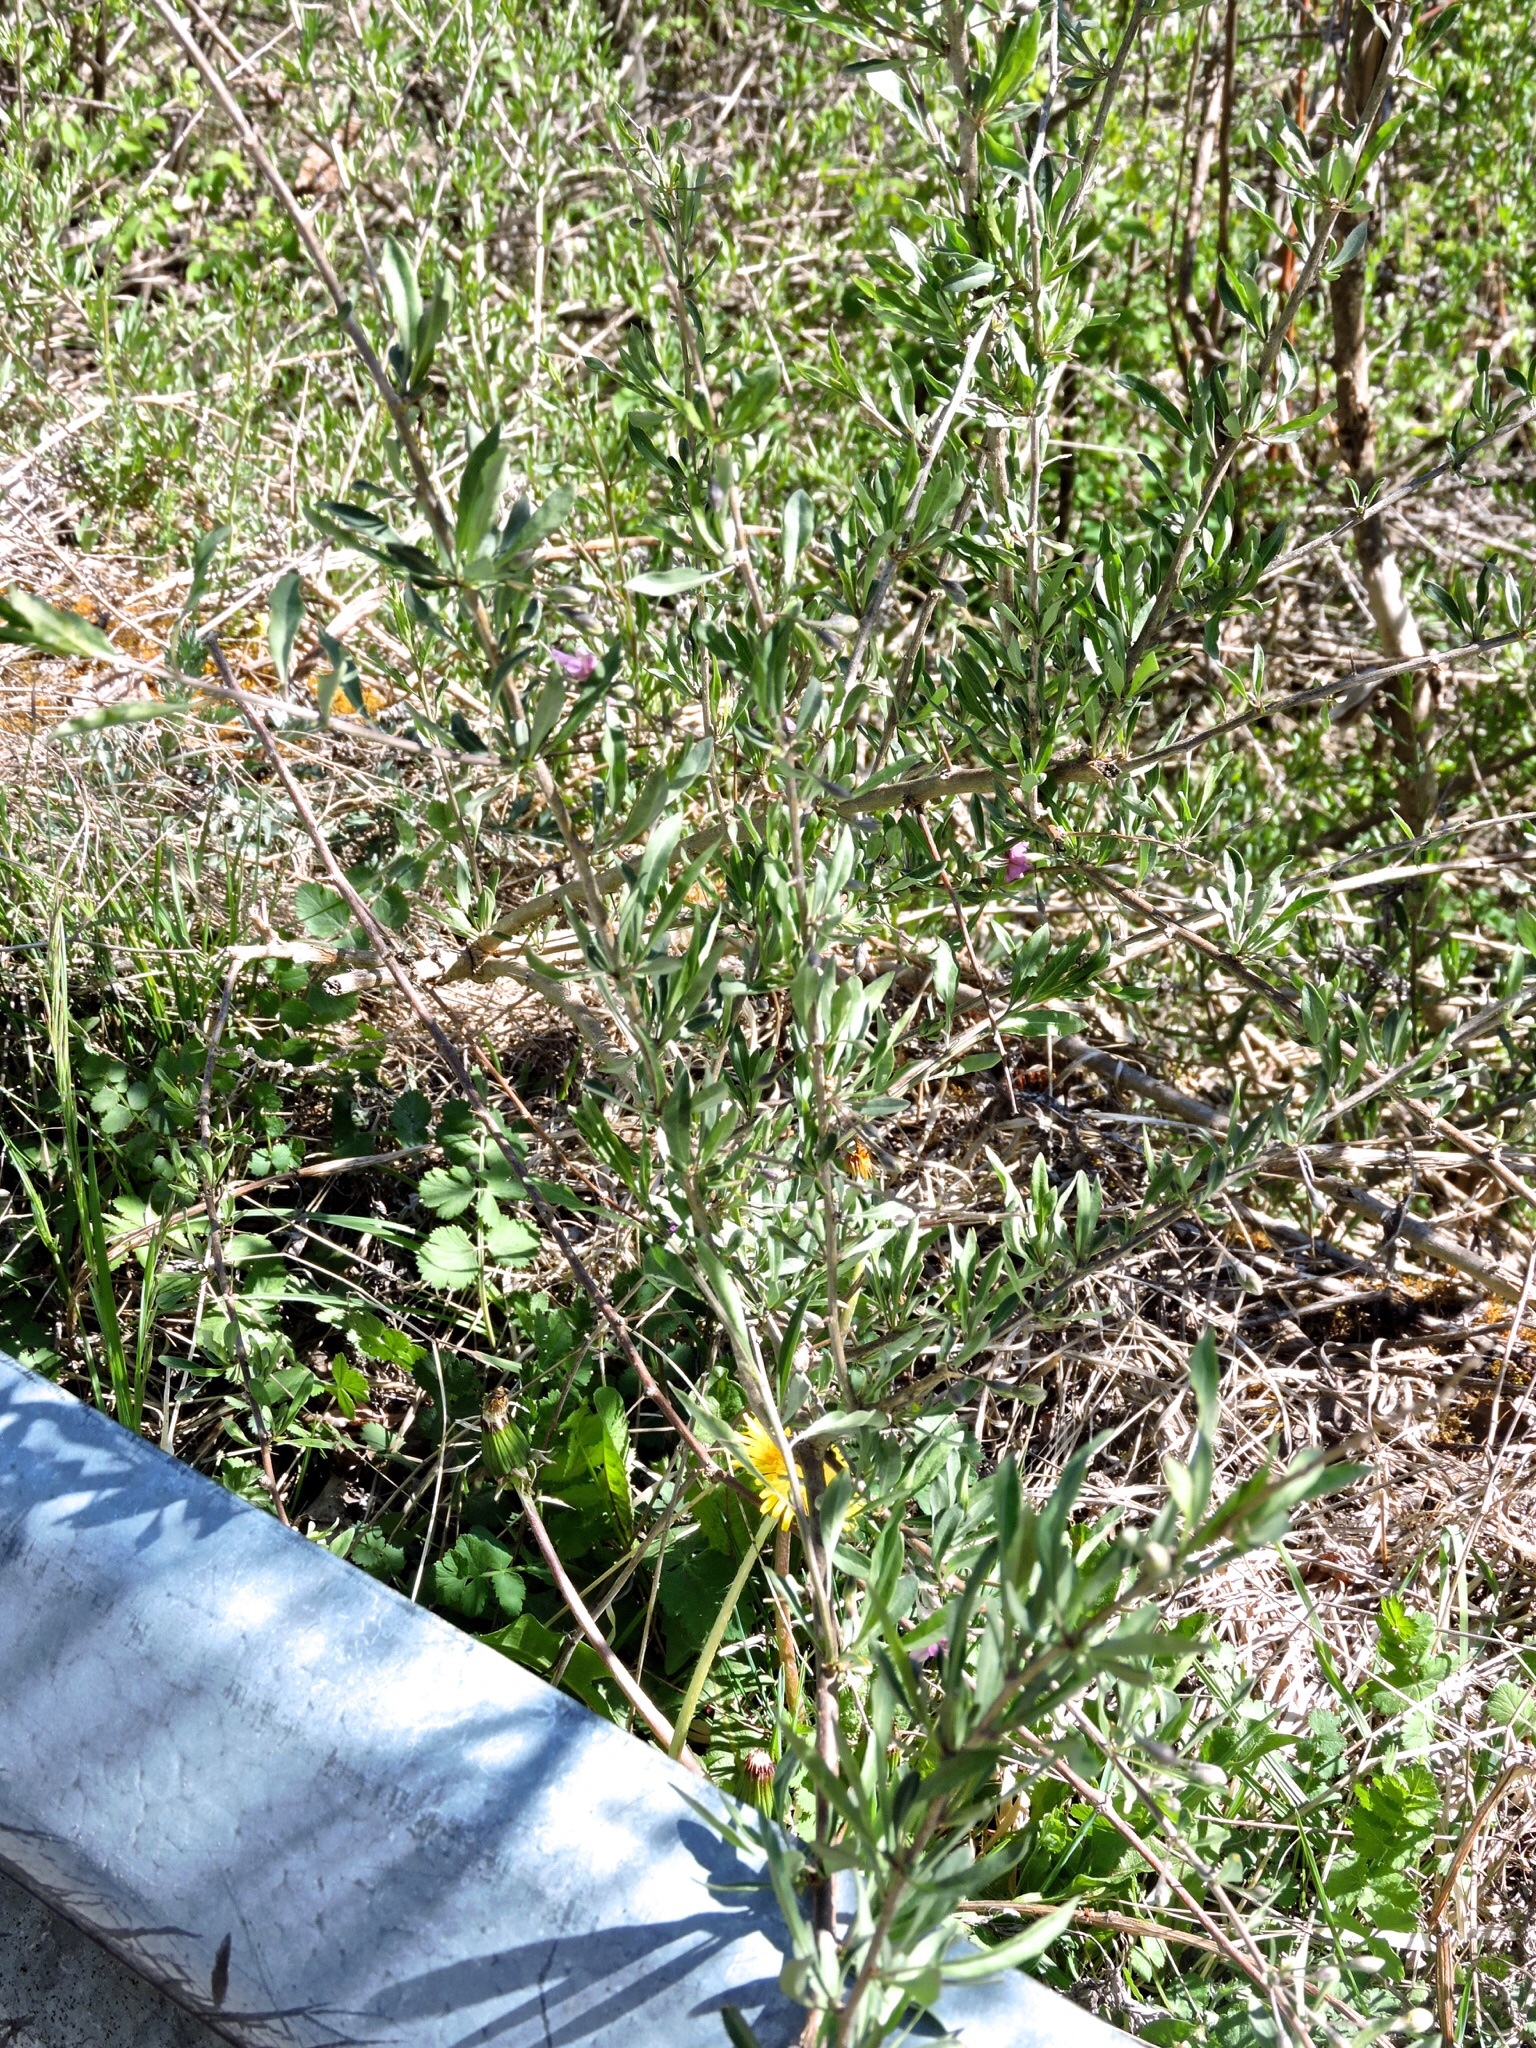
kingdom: Plantae
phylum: Tracheophyta
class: Magnoliopsida
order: Solanales
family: Solanaceae
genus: Lycium
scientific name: Lycium barbarum
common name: Duke of argyll's teaplant
